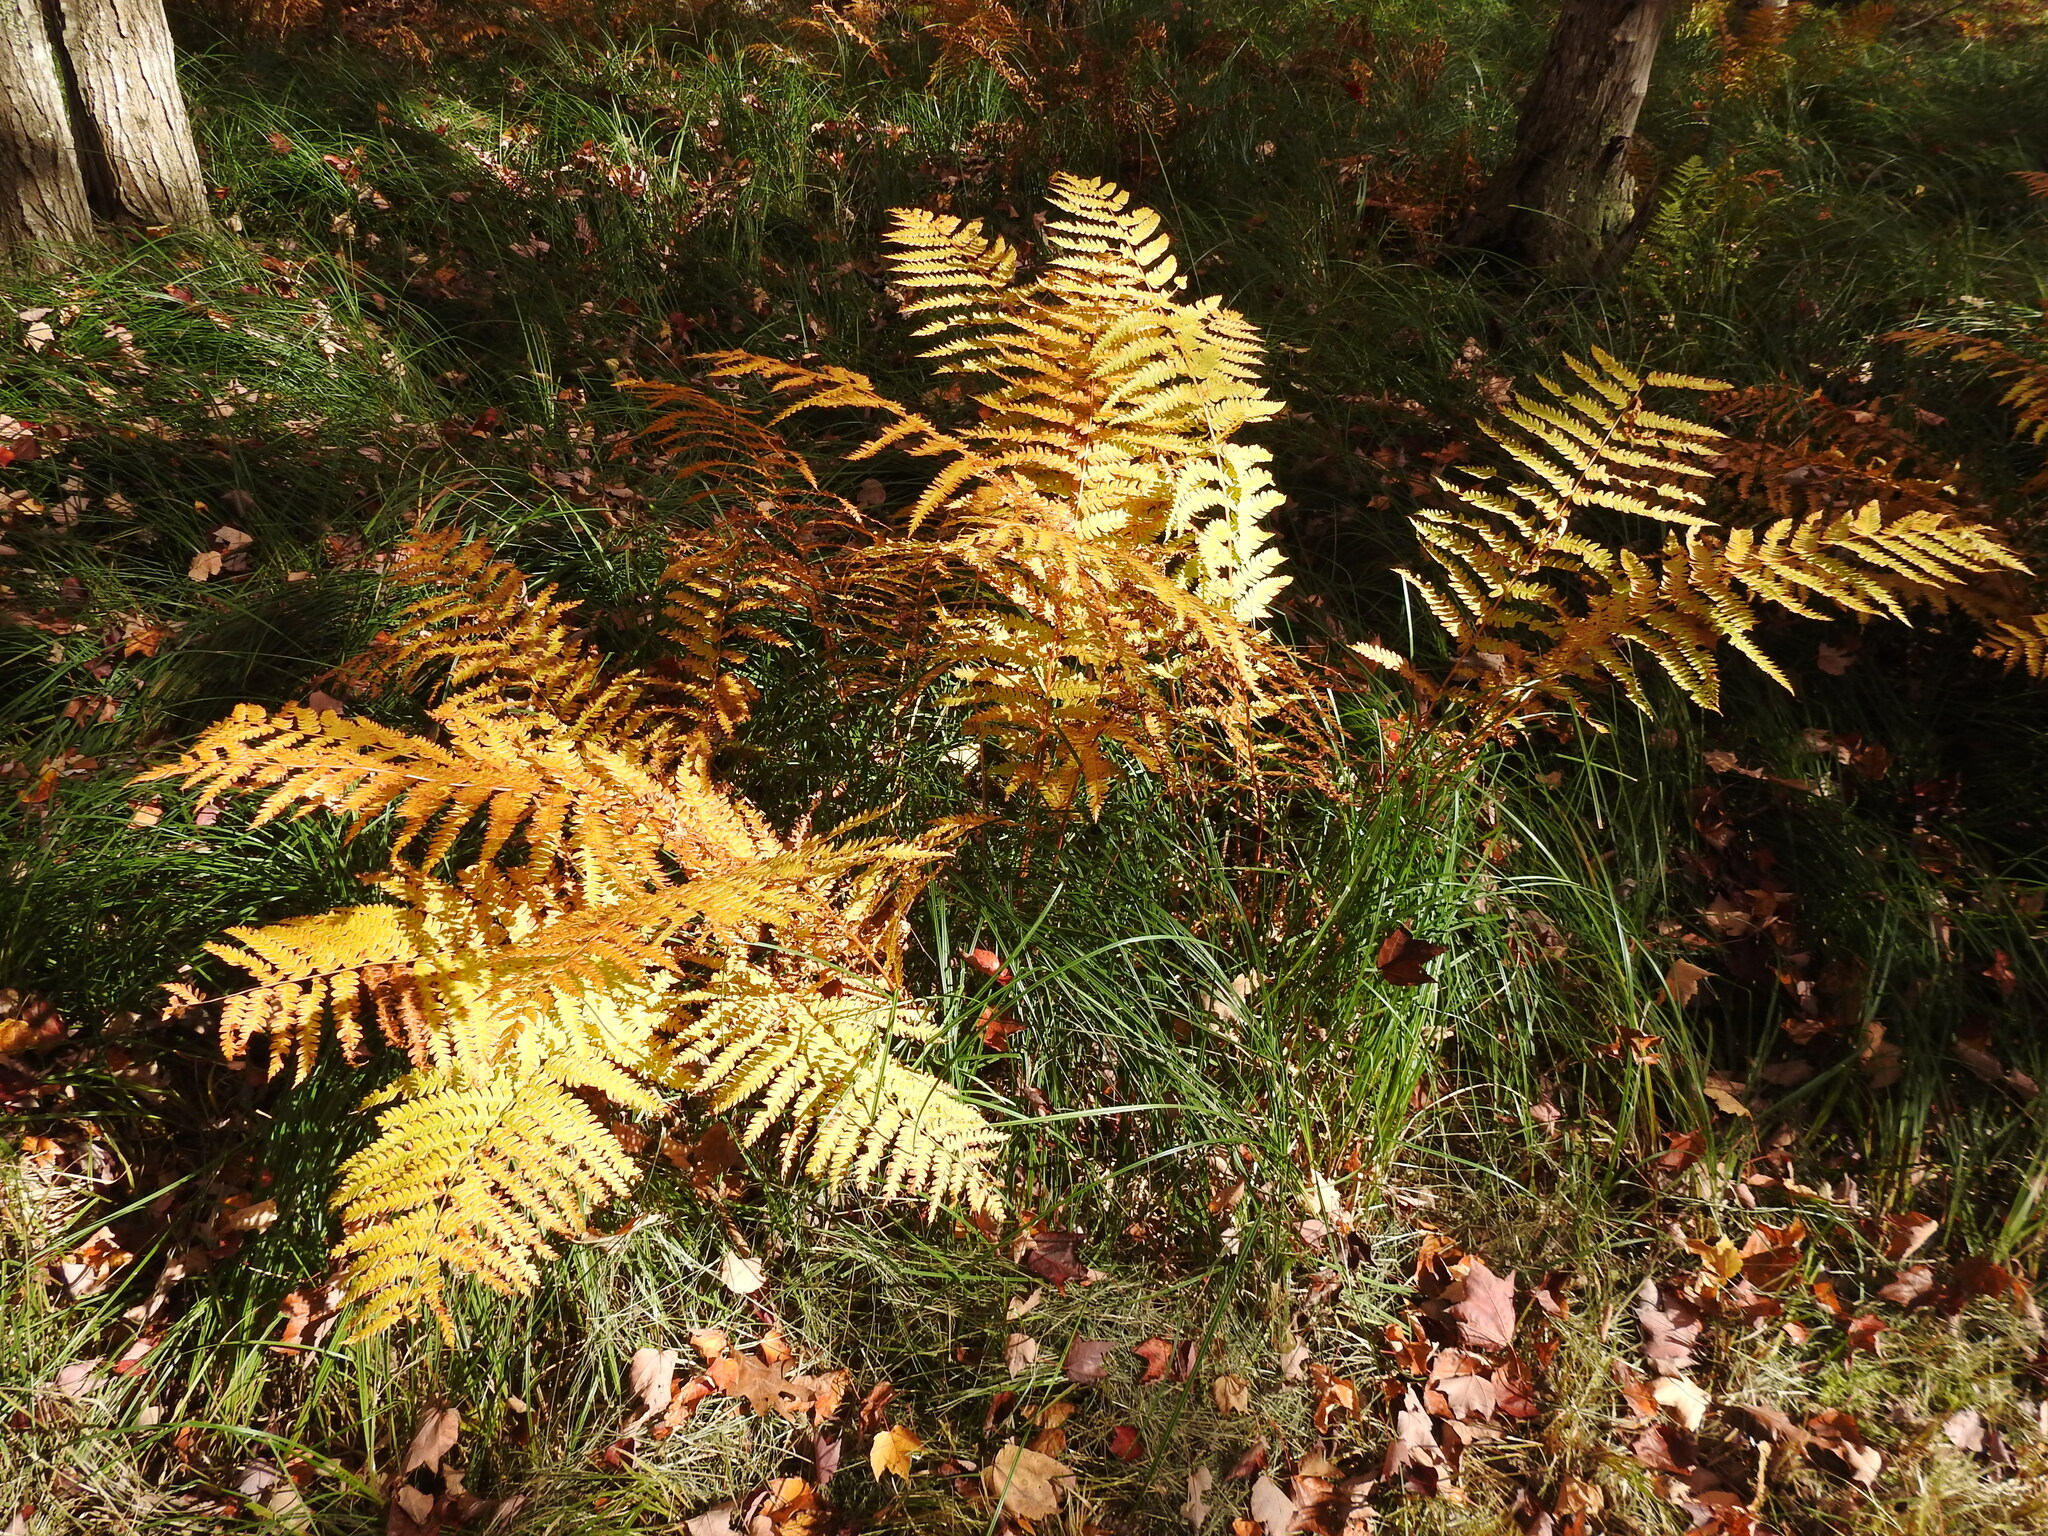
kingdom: Plantae
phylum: Tracheophyta
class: Polypodiopsida
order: Osmundales
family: Osmundaceae
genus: Osmundastrum
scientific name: Osmundastrum cinnamomeum
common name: Cinnamon fern
